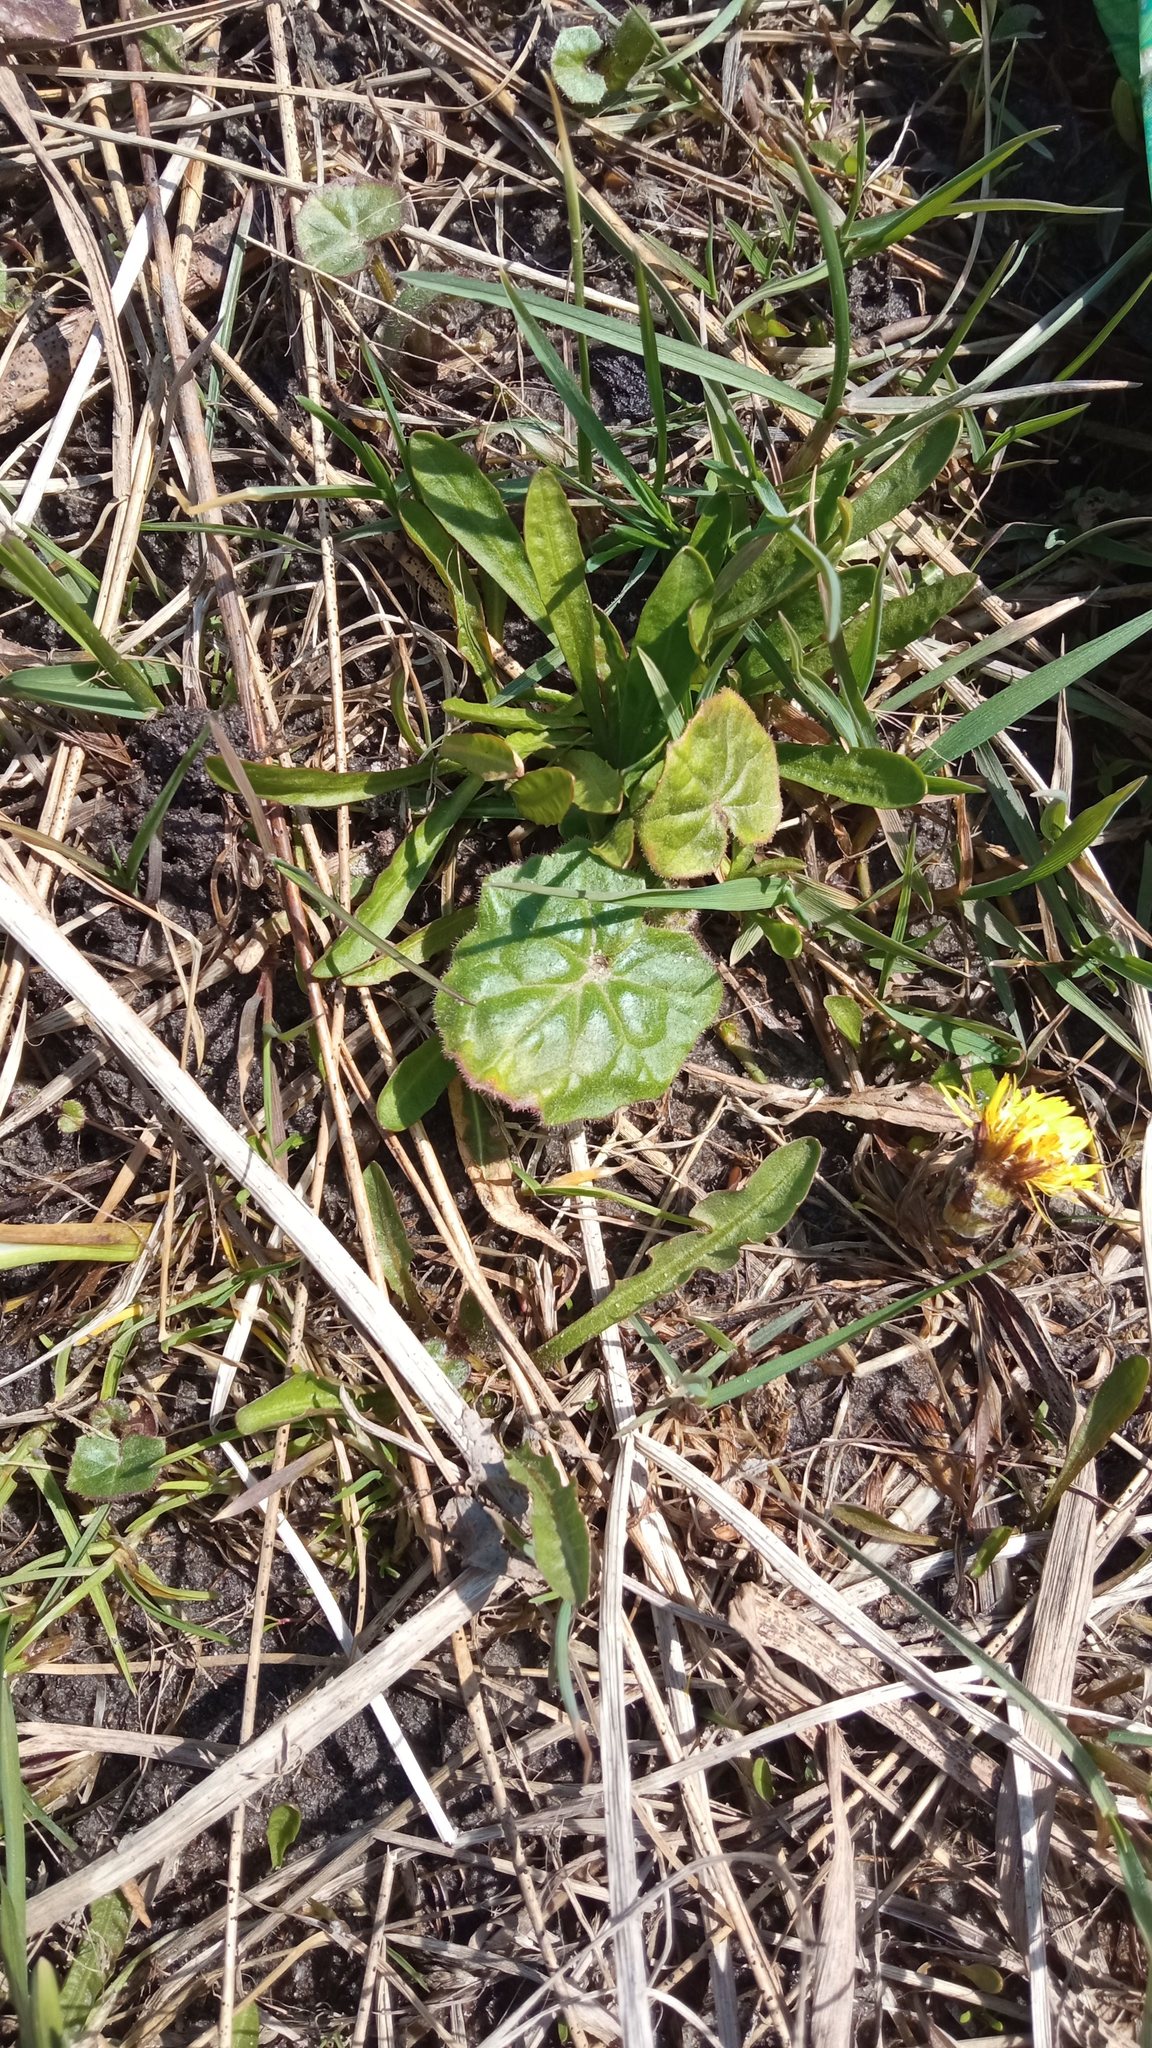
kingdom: Plantae
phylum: Tracheophyta
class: Magnoliopsida
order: Asterales
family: Asteraceae
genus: Tussilago
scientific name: Tussilago farfara
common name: Coltsfoot
